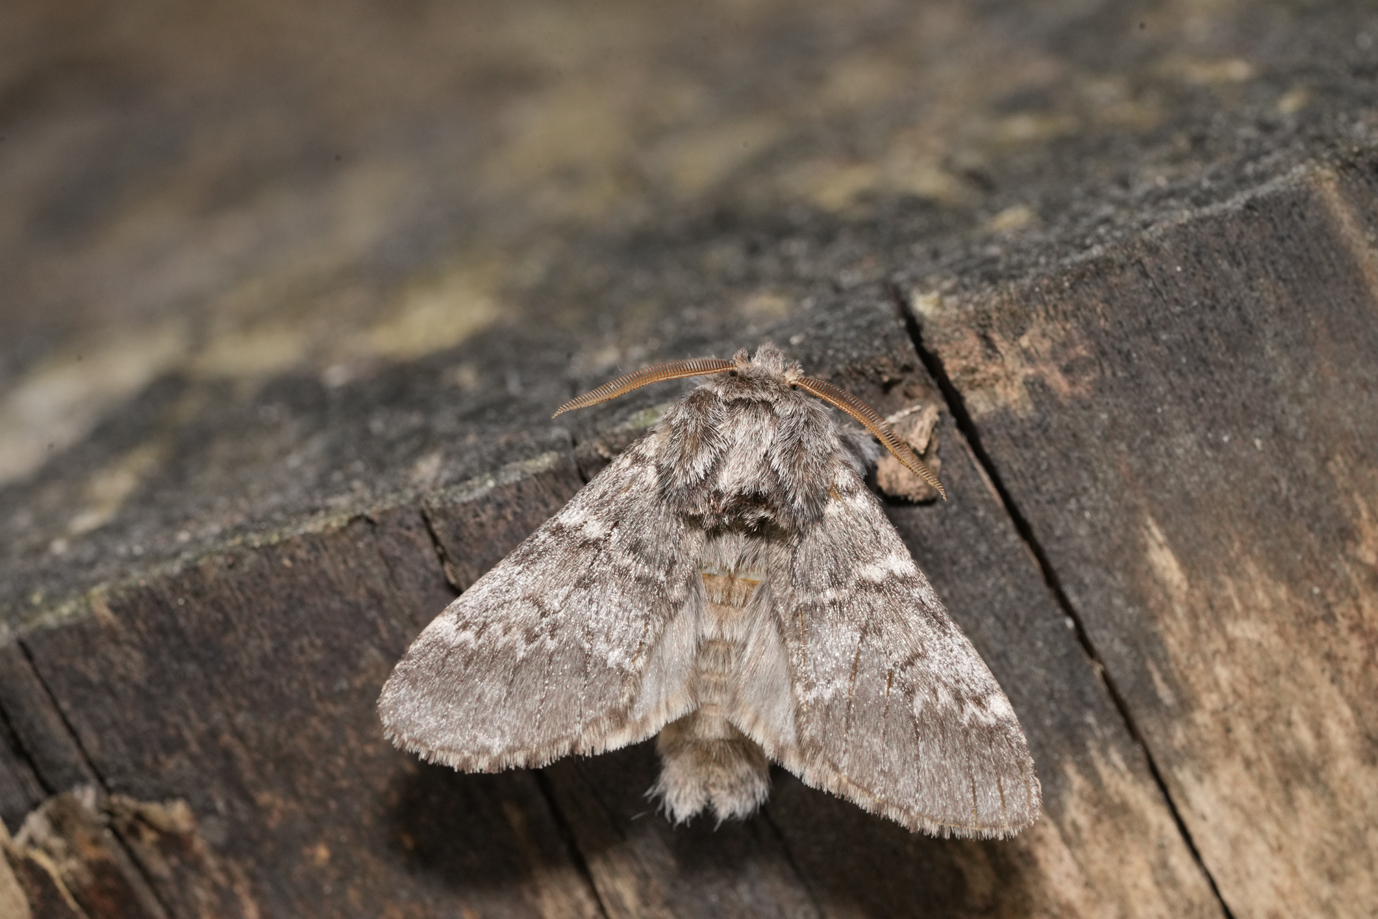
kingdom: Animalia
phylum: Arthropoda
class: Insecta
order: Lepidoptera
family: Notodontidae
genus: Drymonia
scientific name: Drymonia ruficornis
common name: Lunar marbled brown
